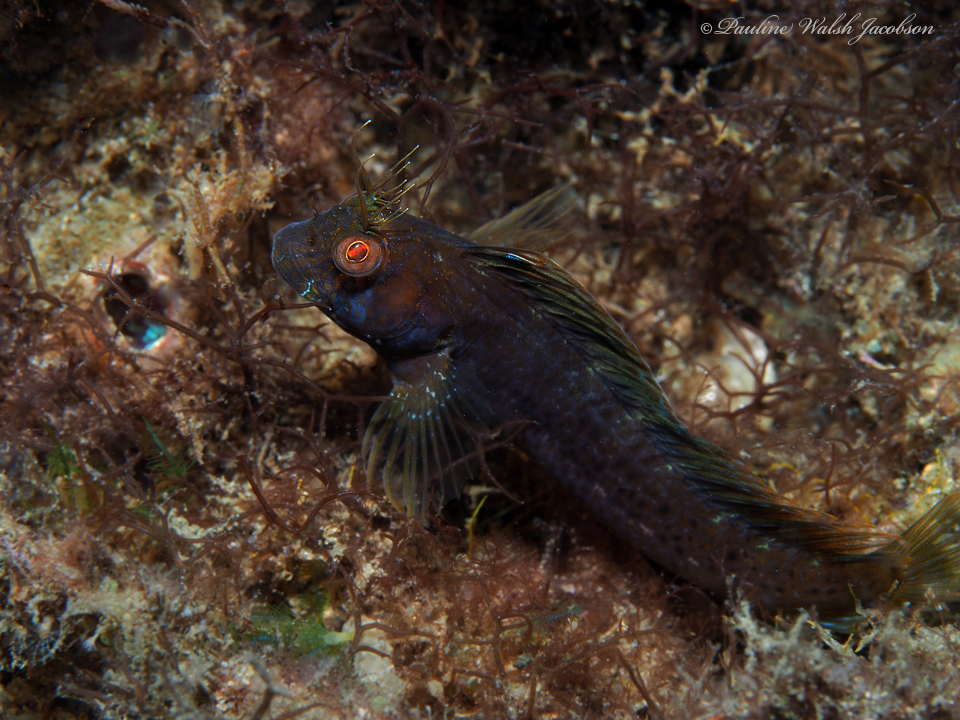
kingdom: Animalia
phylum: Chordata
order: Perciformes
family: Blenniidae
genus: Parablennius
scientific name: Parablennius marmoreus
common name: Seaweed blenny
